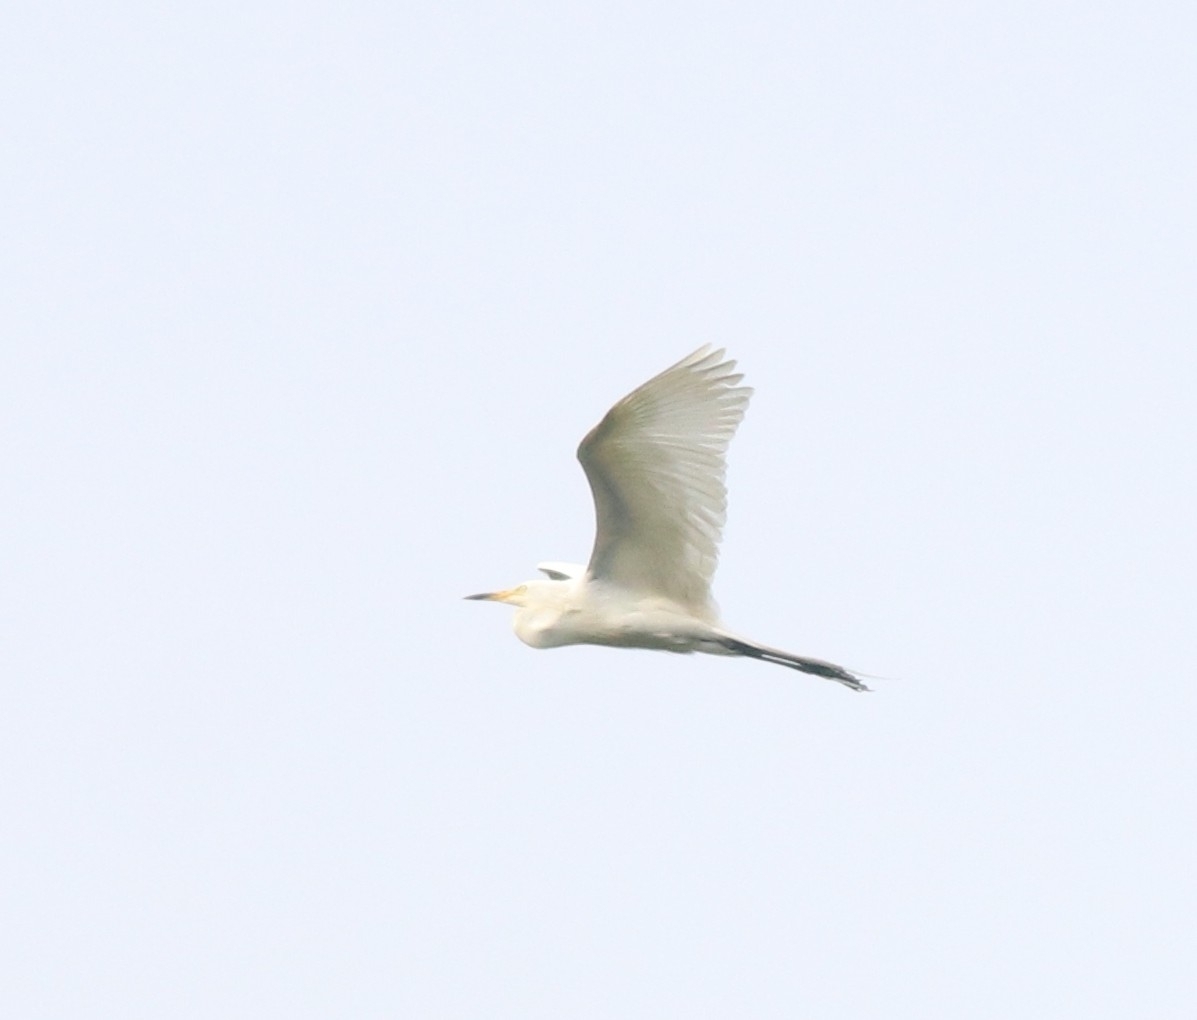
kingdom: Animalia
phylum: Chordata
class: Aves
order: Pelecaniformes
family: Ardeidae
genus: Egretta
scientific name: Egretta intermedia
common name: Intermediate egret
